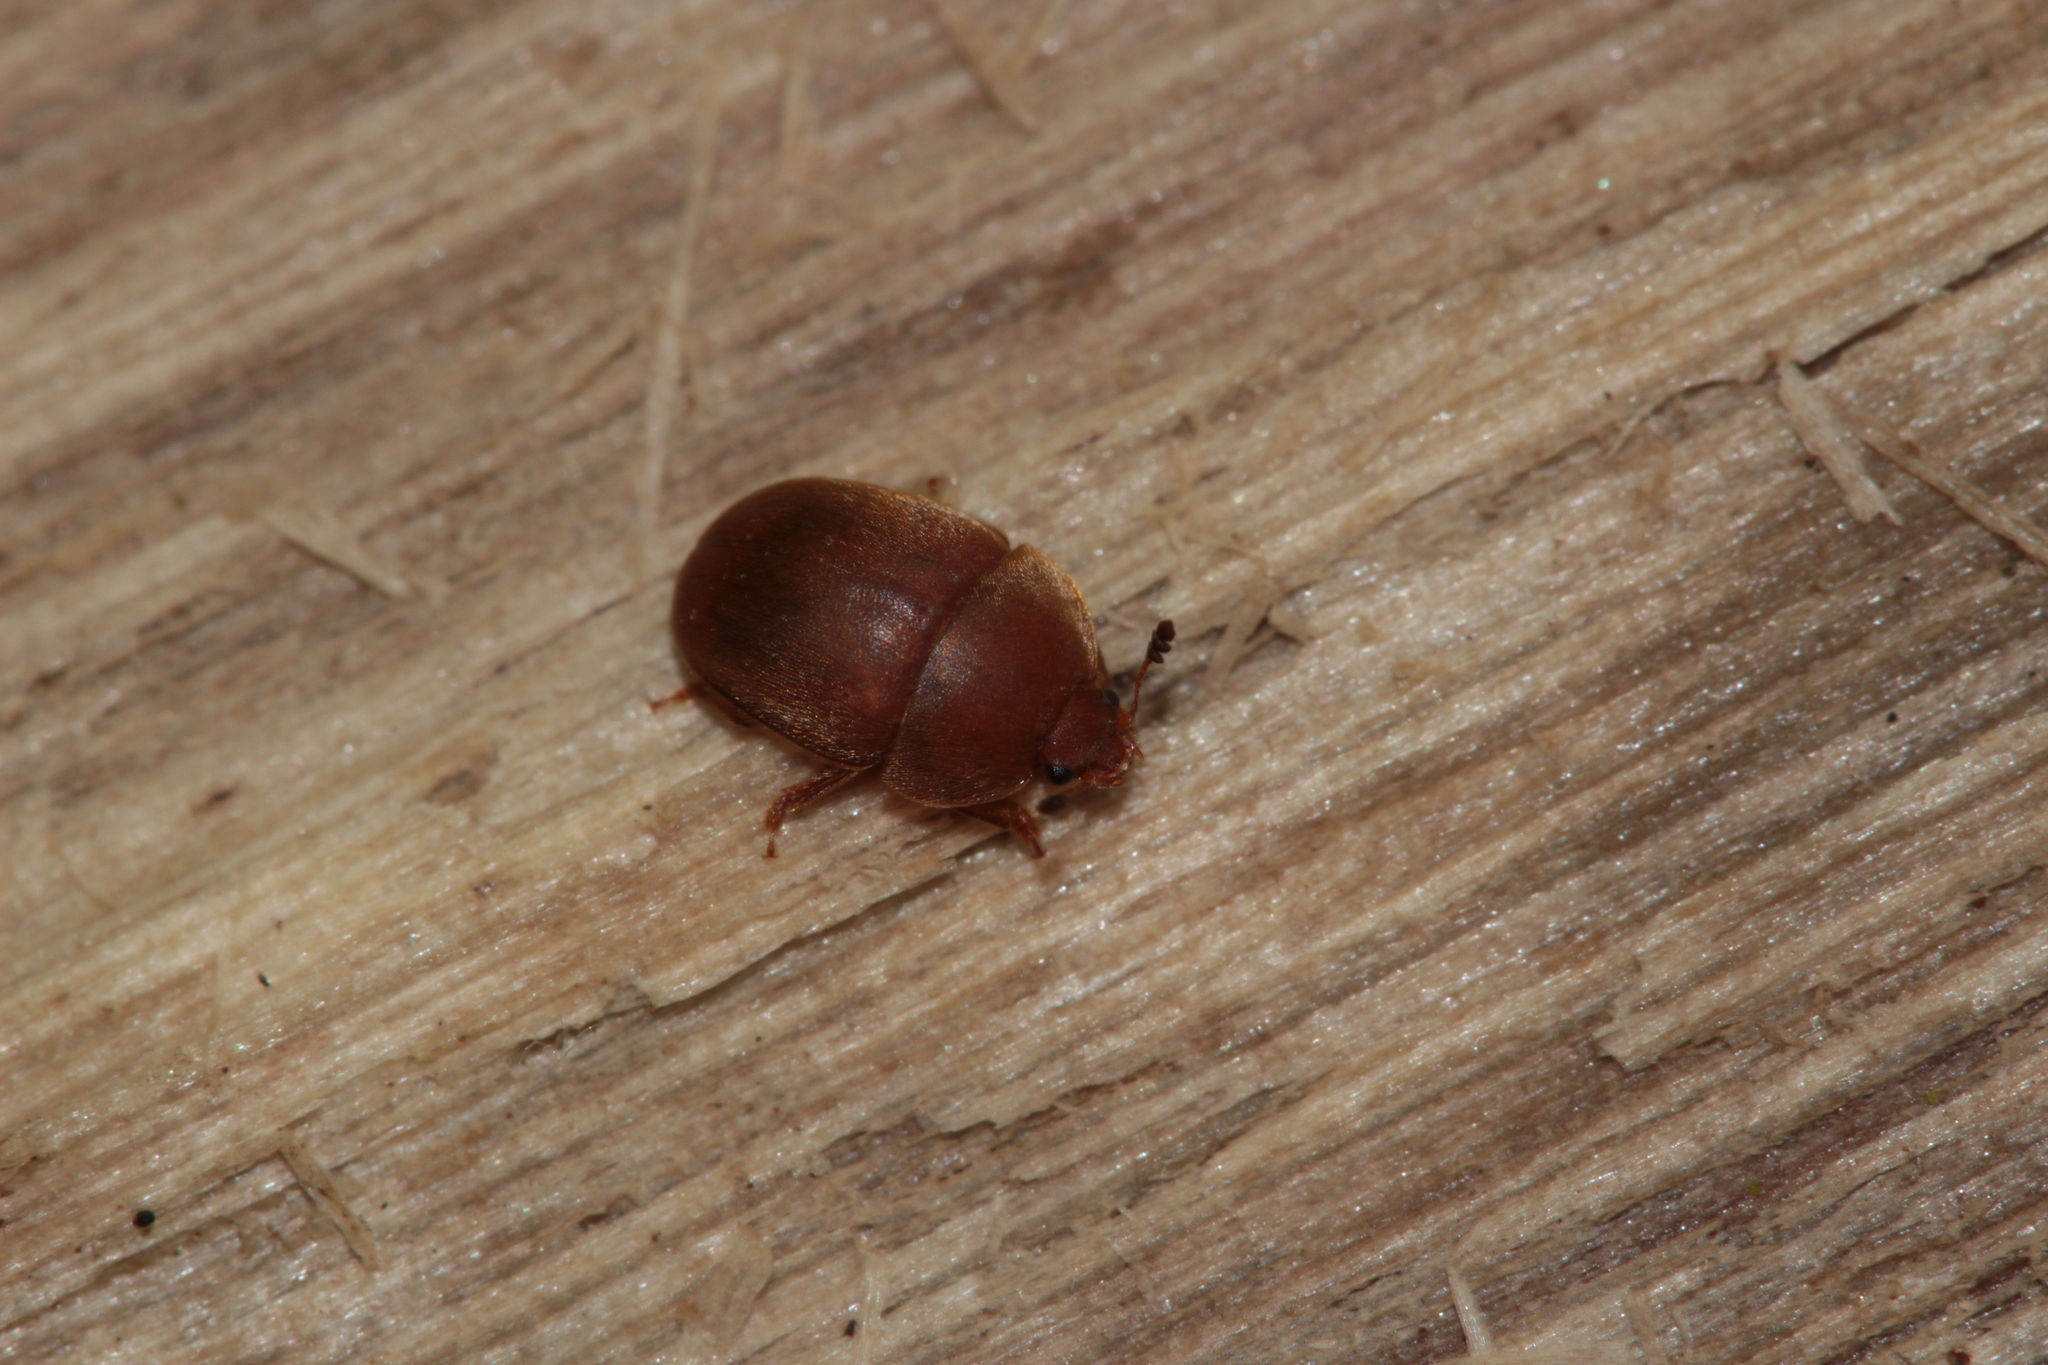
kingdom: Animalia
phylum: Arthropoda
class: Insecta
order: Coleoptera
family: Nitidulidae
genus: Cychramus
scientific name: Cychramus luteus
